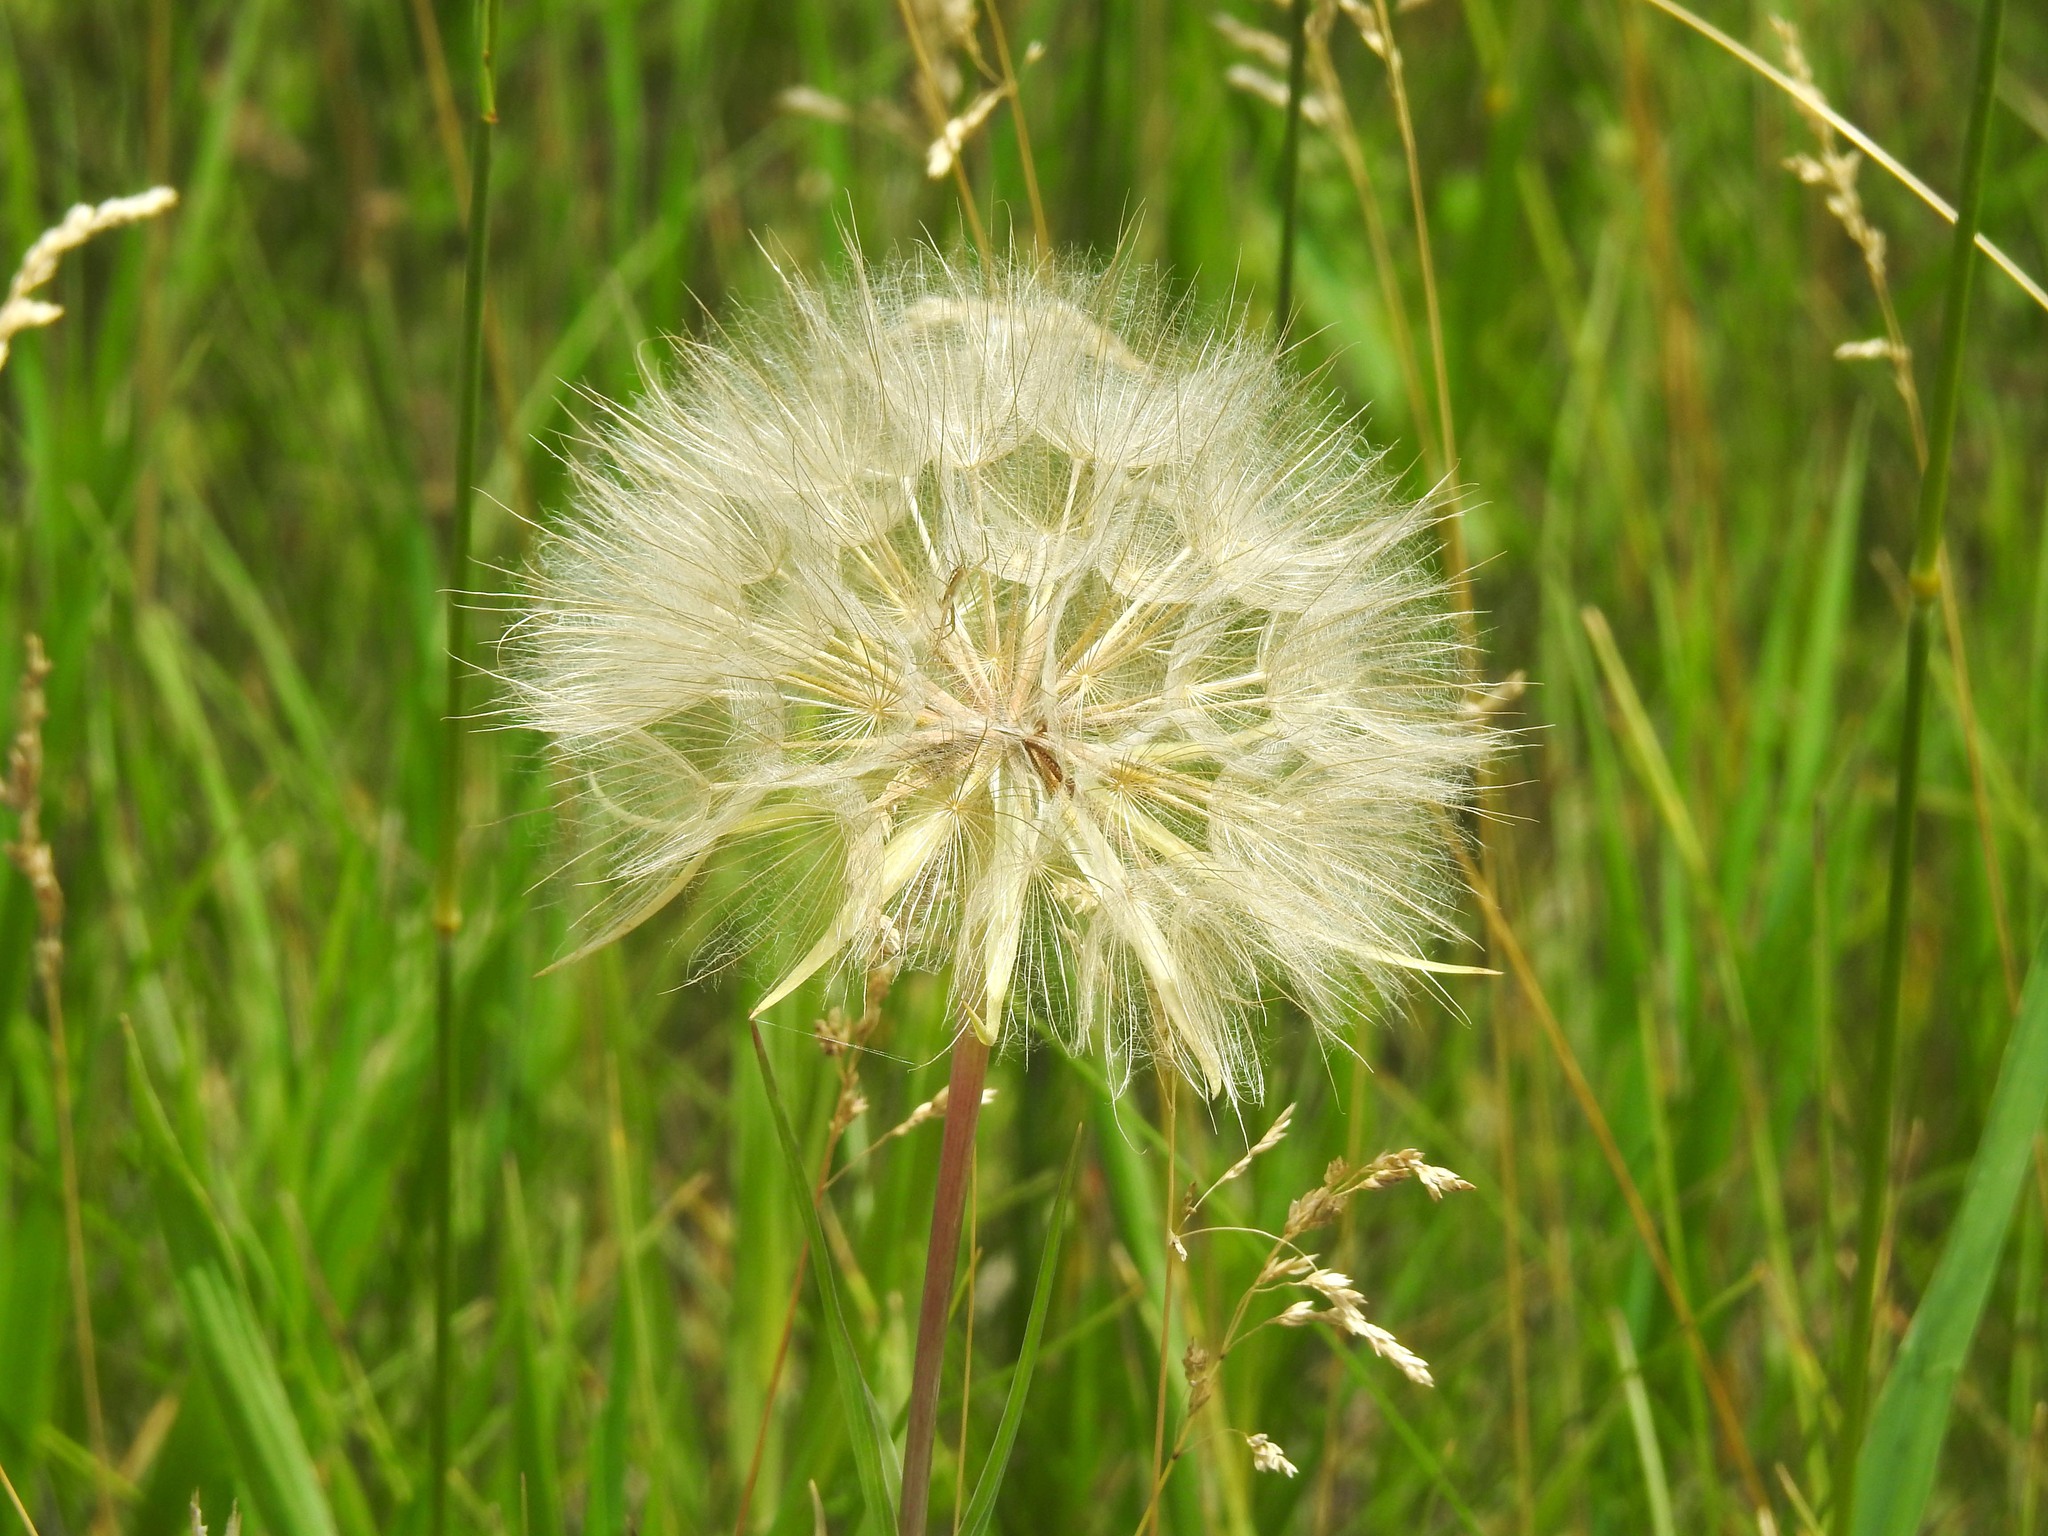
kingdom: Plantae
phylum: Tracheophyta
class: Magnoliopsida
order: Asterales
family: Asteraceae
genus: Tragopogon
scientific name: Tragopogon dubius
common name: Yellow salsify
